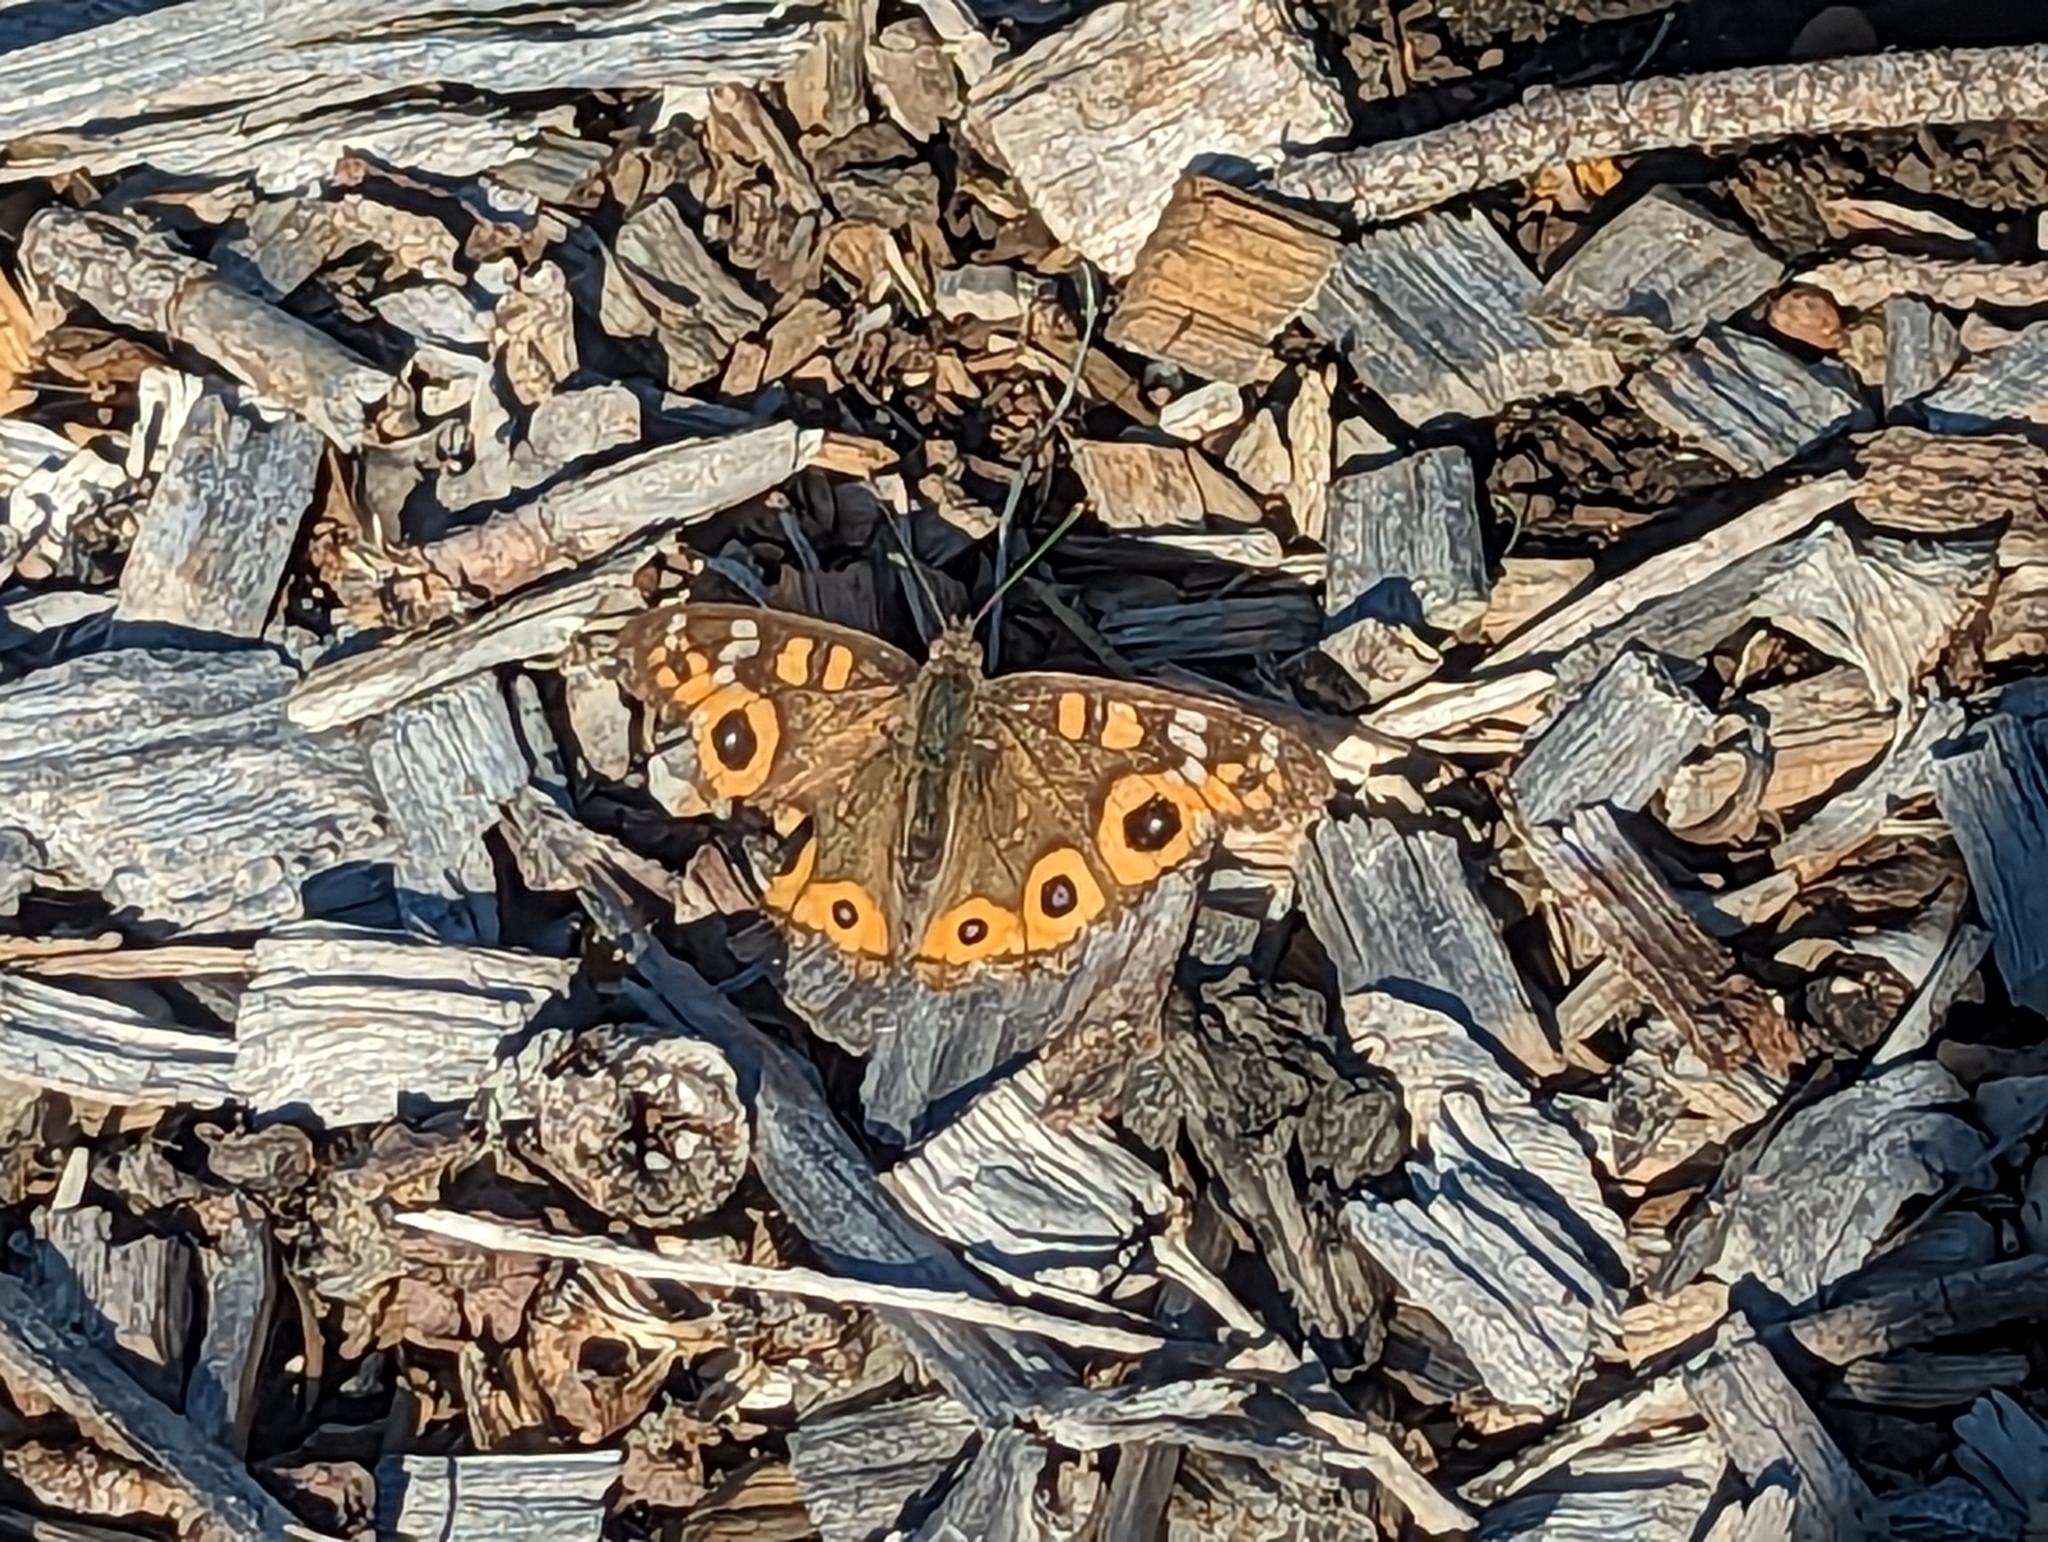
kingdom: Animalia
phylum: Arthropoda
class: Insecta
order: Lepidoptera
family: Nymphalidae
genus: Junonia
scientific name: Junonia villida
